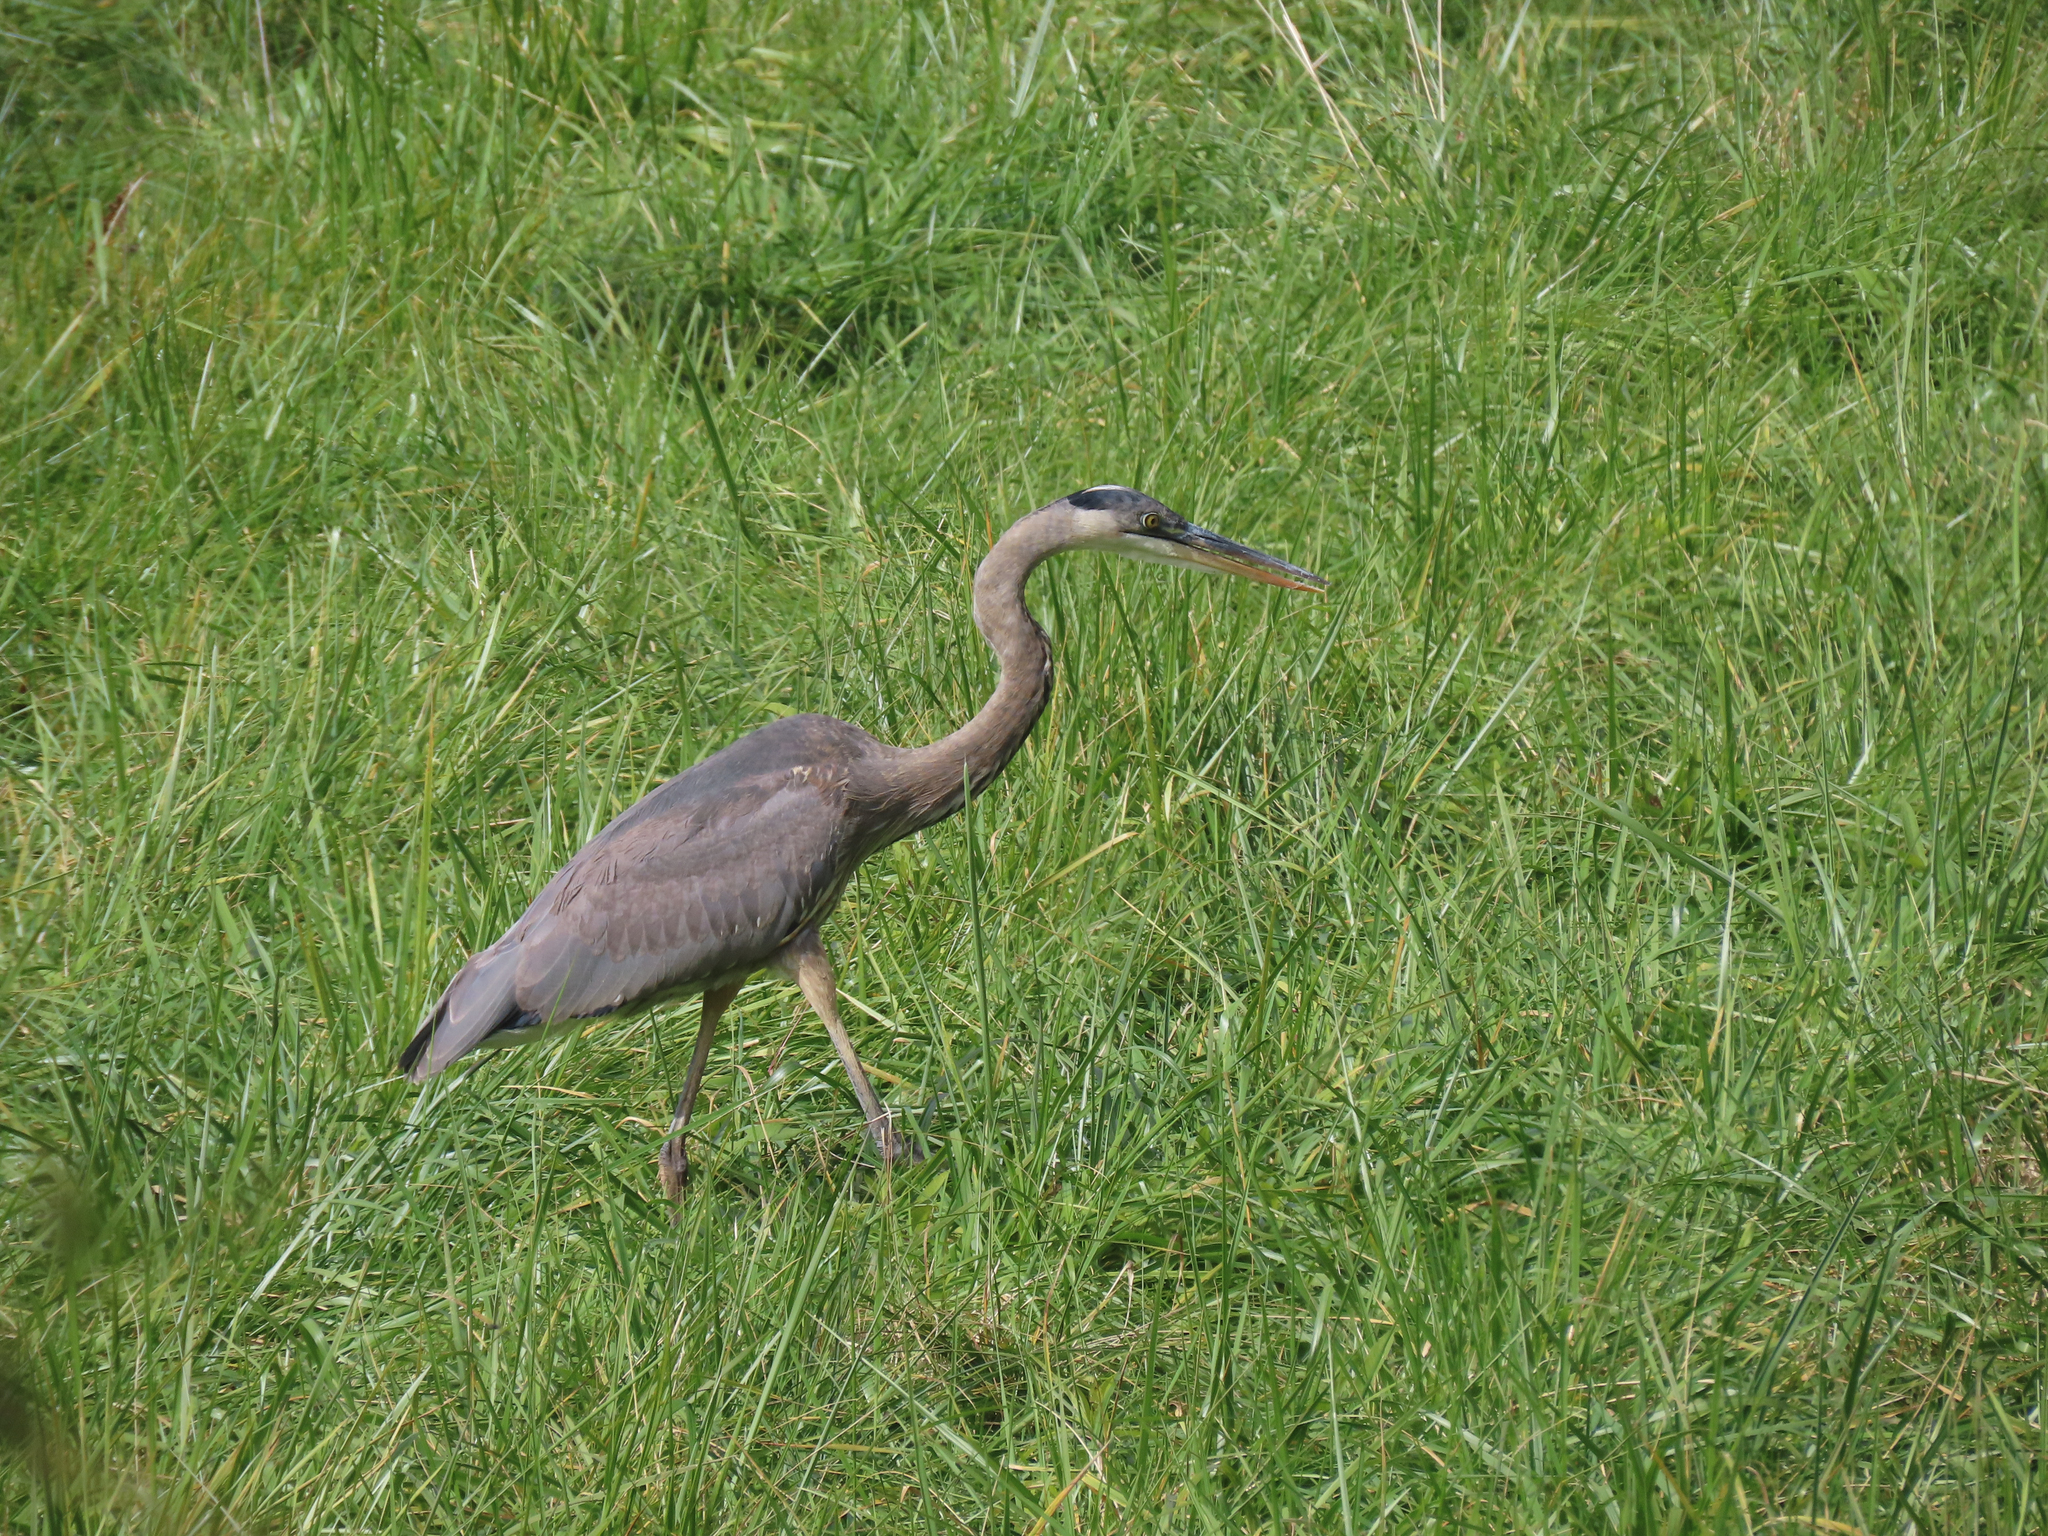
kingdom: Animalia
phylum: Chordata
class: Aves
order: Pelecaniformes
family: Ardeidae
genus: Ardea
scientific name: Ardea herodias
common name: Great blue heron
